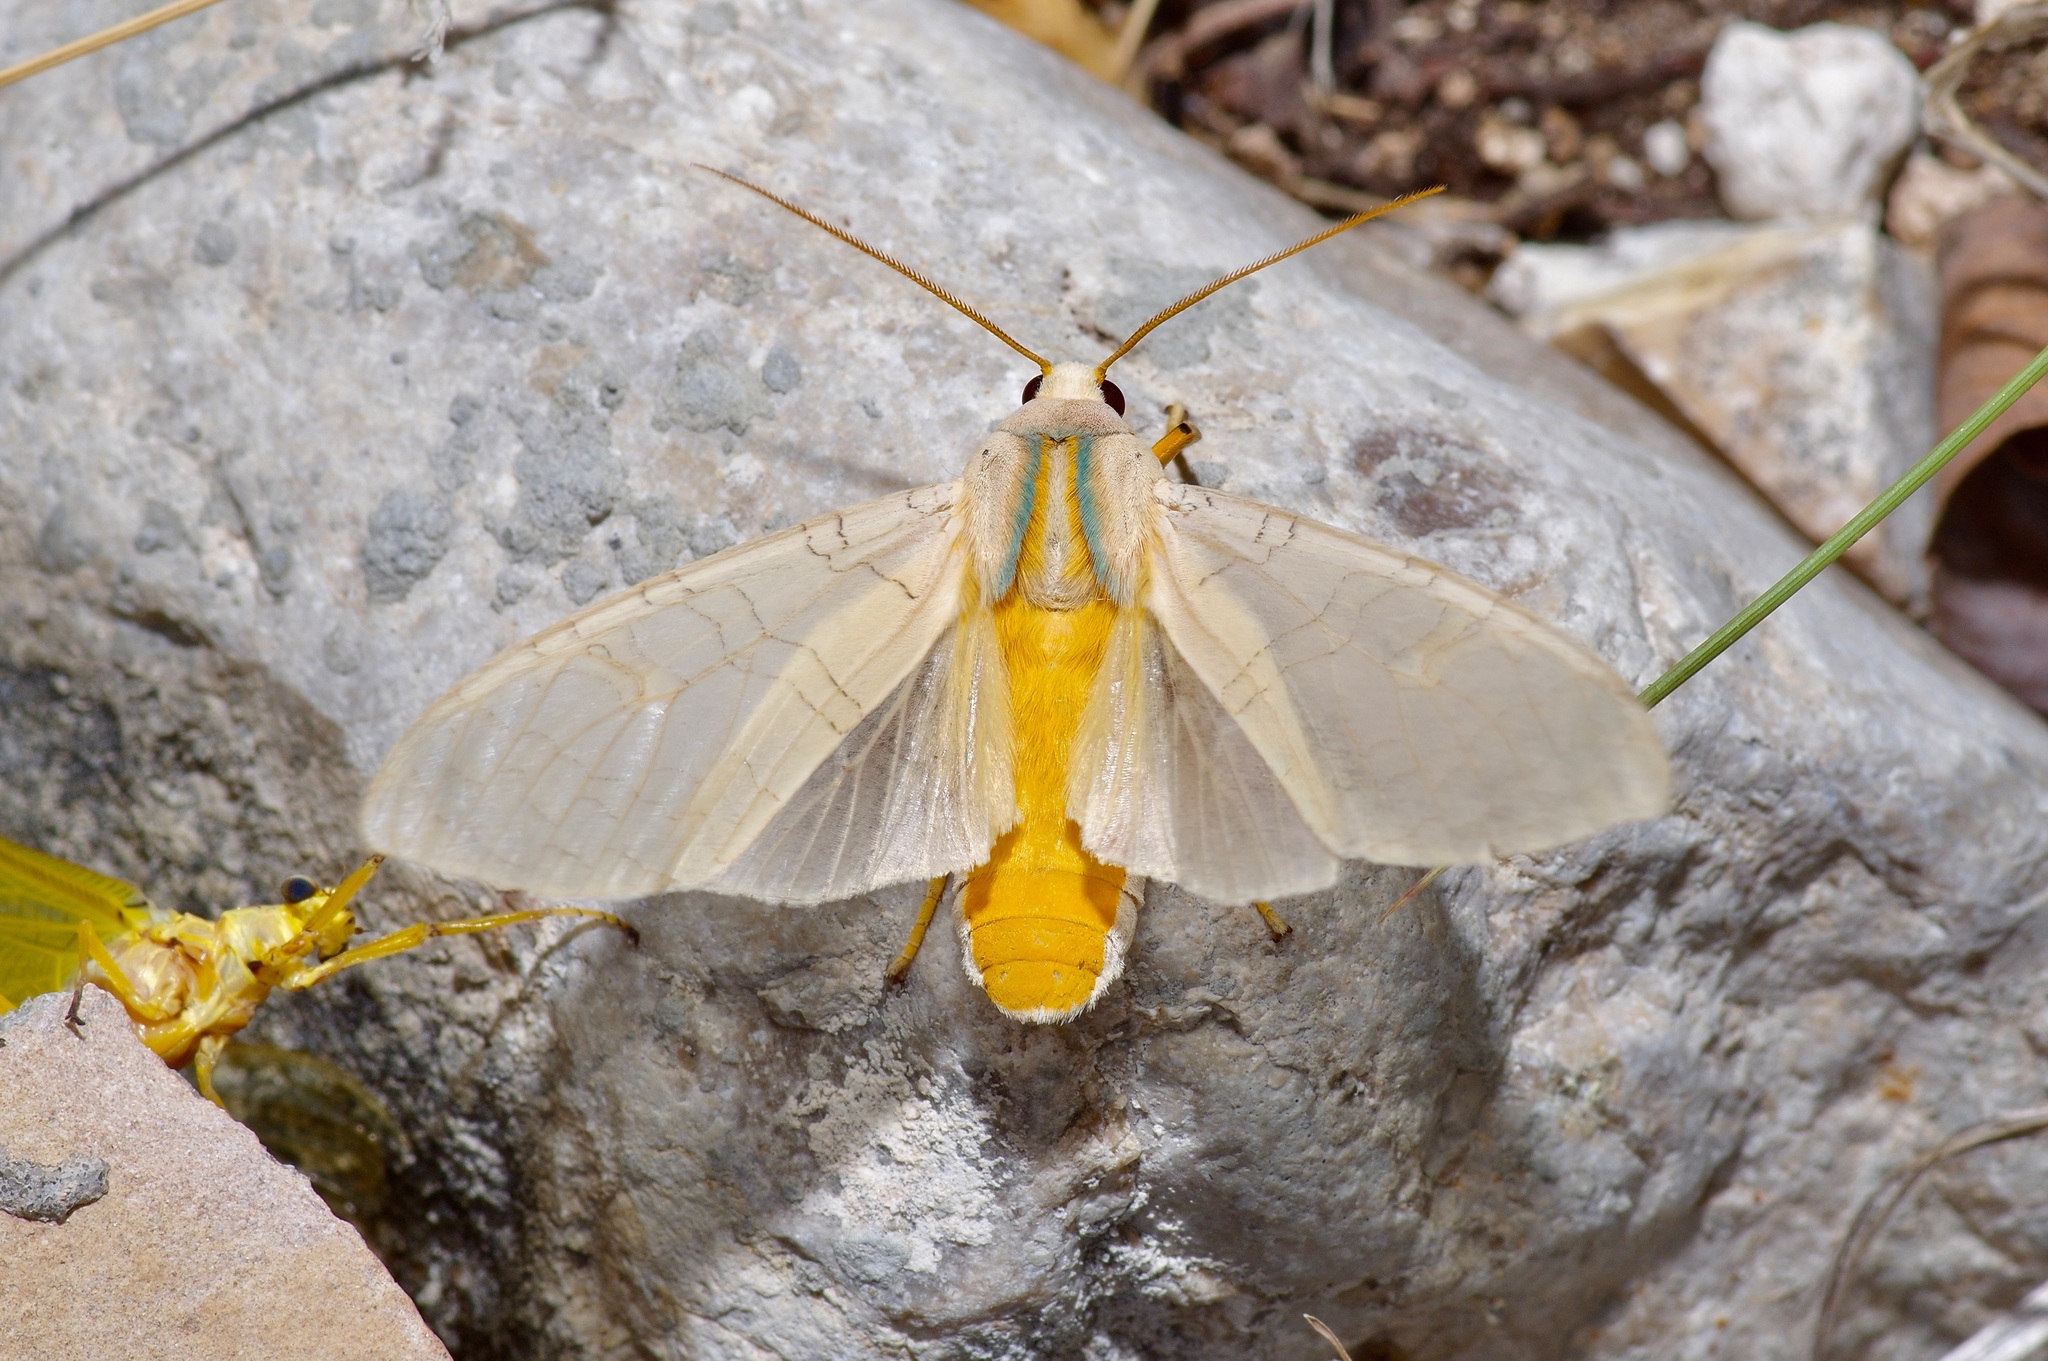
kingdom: Animalia
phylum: Arthropoda
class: Insecta
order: Lepidoptera
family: Erebidae
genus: Halysidota
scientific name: Halysidota harrisii
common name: Sycamore tussock moth
